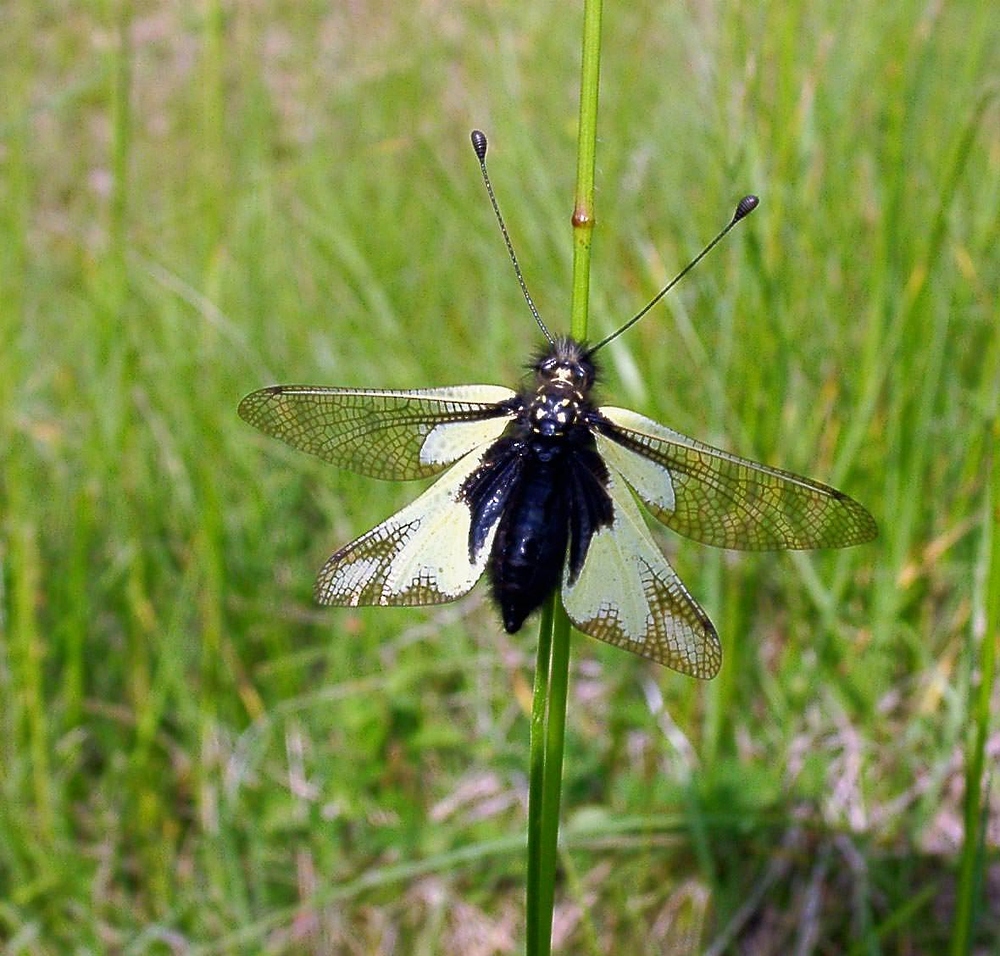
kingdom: Animalia
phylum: Arthropoda
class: Insecta
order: Neuroptera
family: Ascalaphidae
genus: Libelloides
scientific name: Libelloides coccajus
